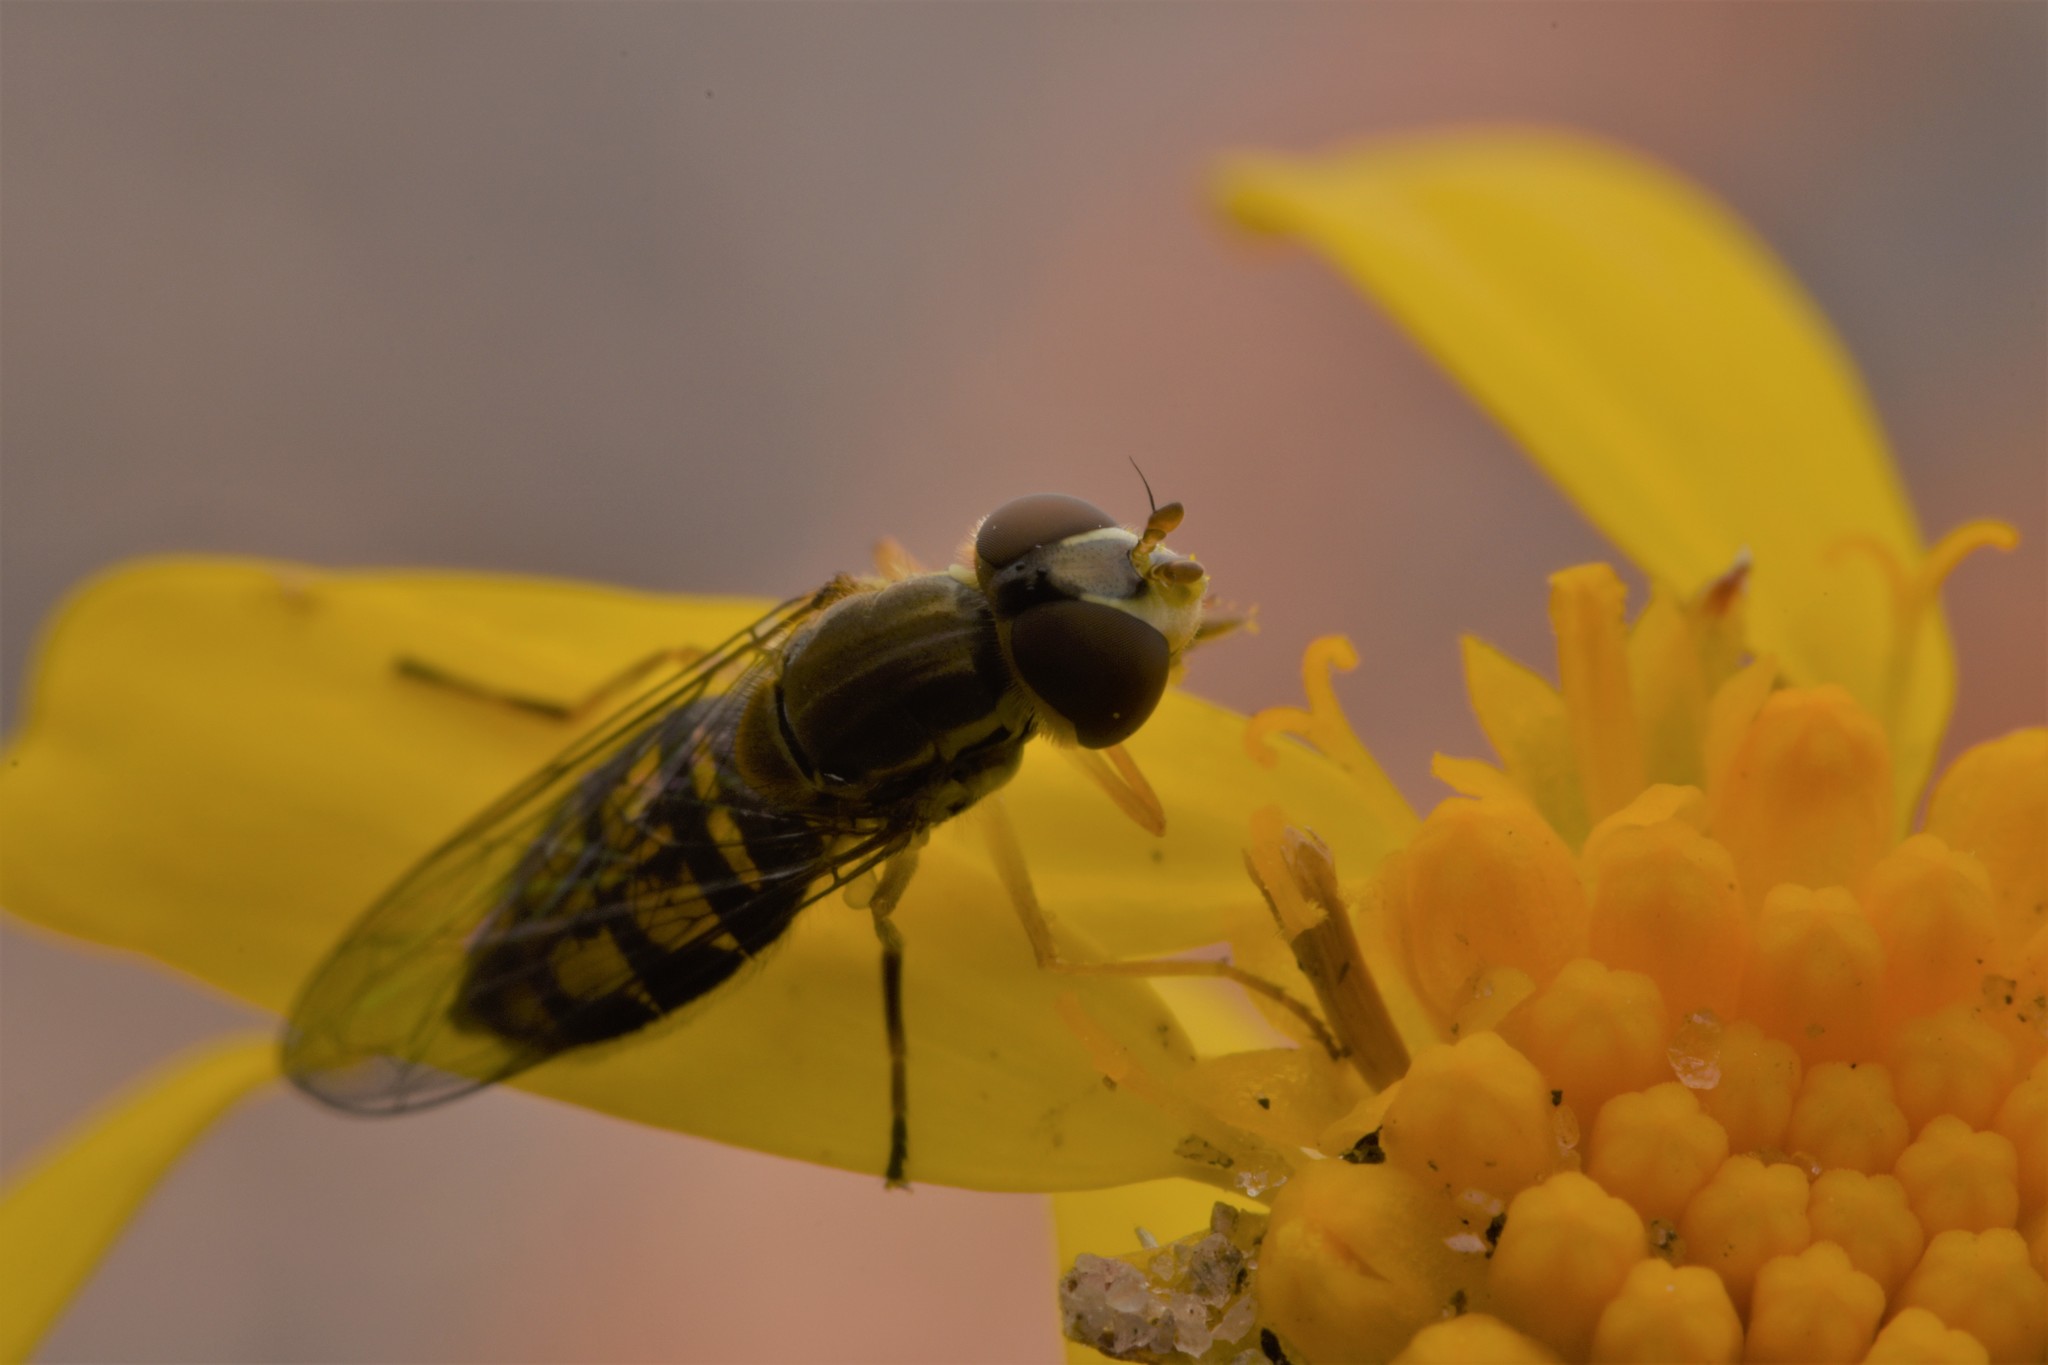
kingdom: Animalia
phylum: Arthropoda
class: Insecta
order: Diptera
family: Syrphidae
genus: Toxomerus
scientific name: Toxomerus marginatus
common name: Syrphid fly
